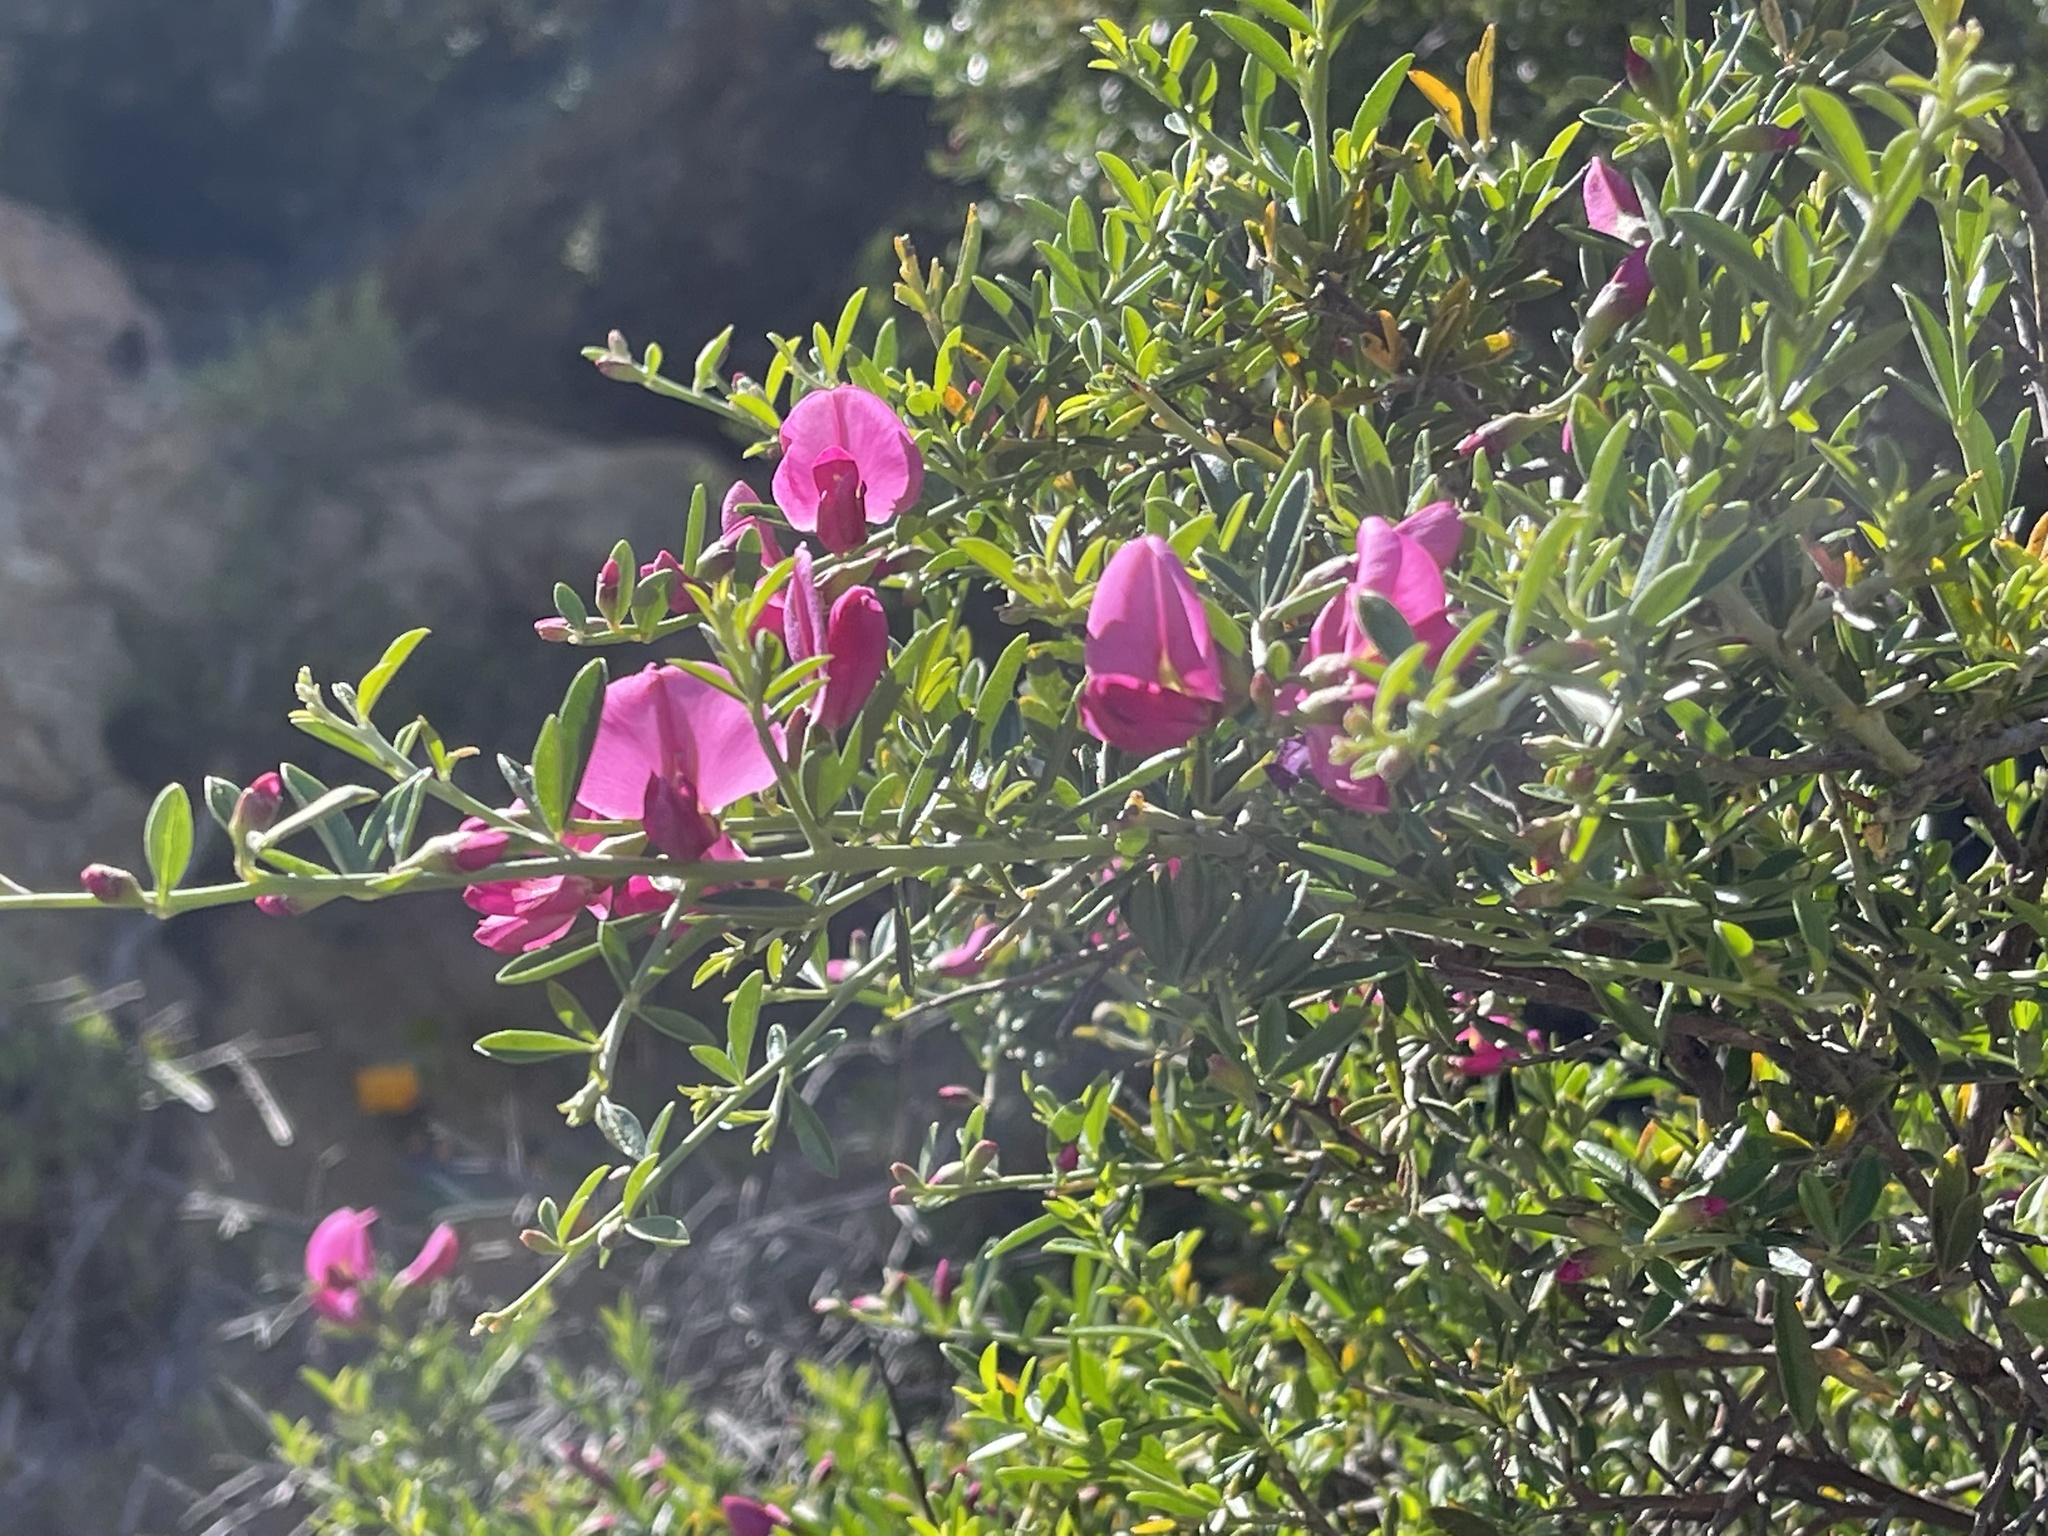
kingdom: Plantae
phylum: Tracheophyta
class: Magnoliopsida
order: Fabales
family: Fabaceae
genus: Pickeringia
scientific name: Pickeringia montana
